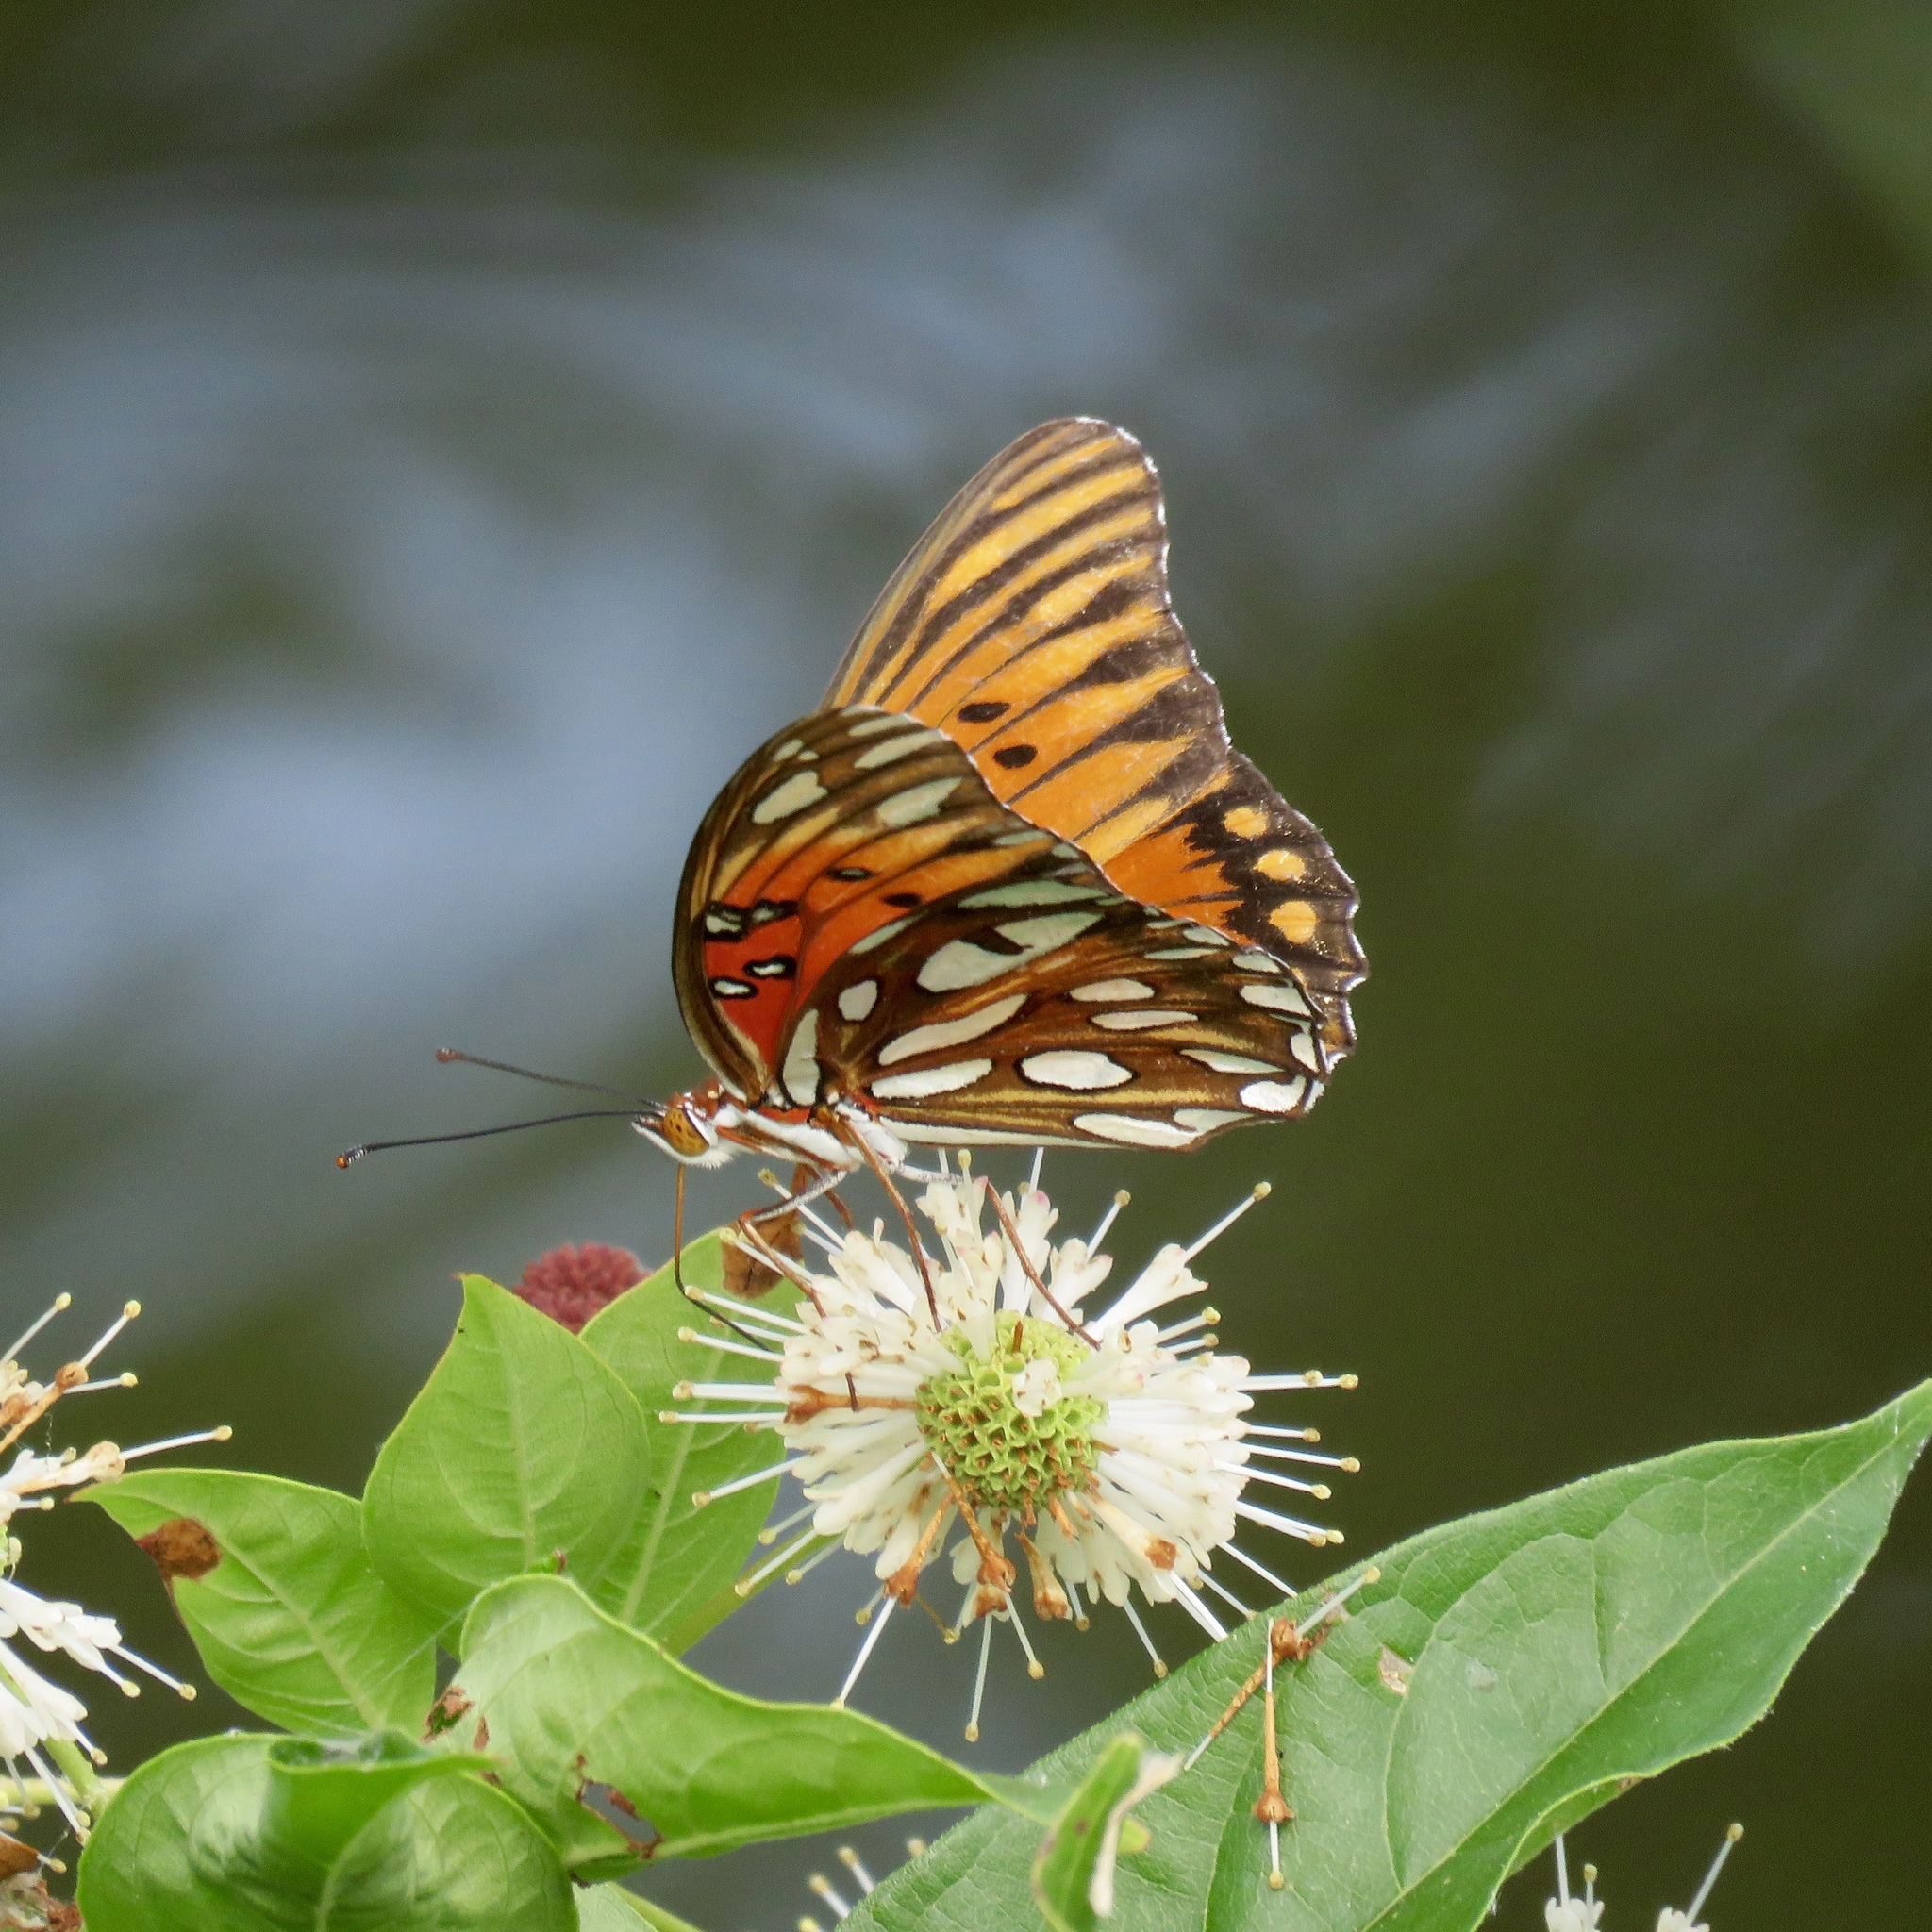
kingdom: Animalia
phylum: Arthropoda
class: Insecta
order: Lepidoptera
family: Nymphalidae
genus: Dione
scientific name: Dione vanillae
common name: Gulf fritillary
